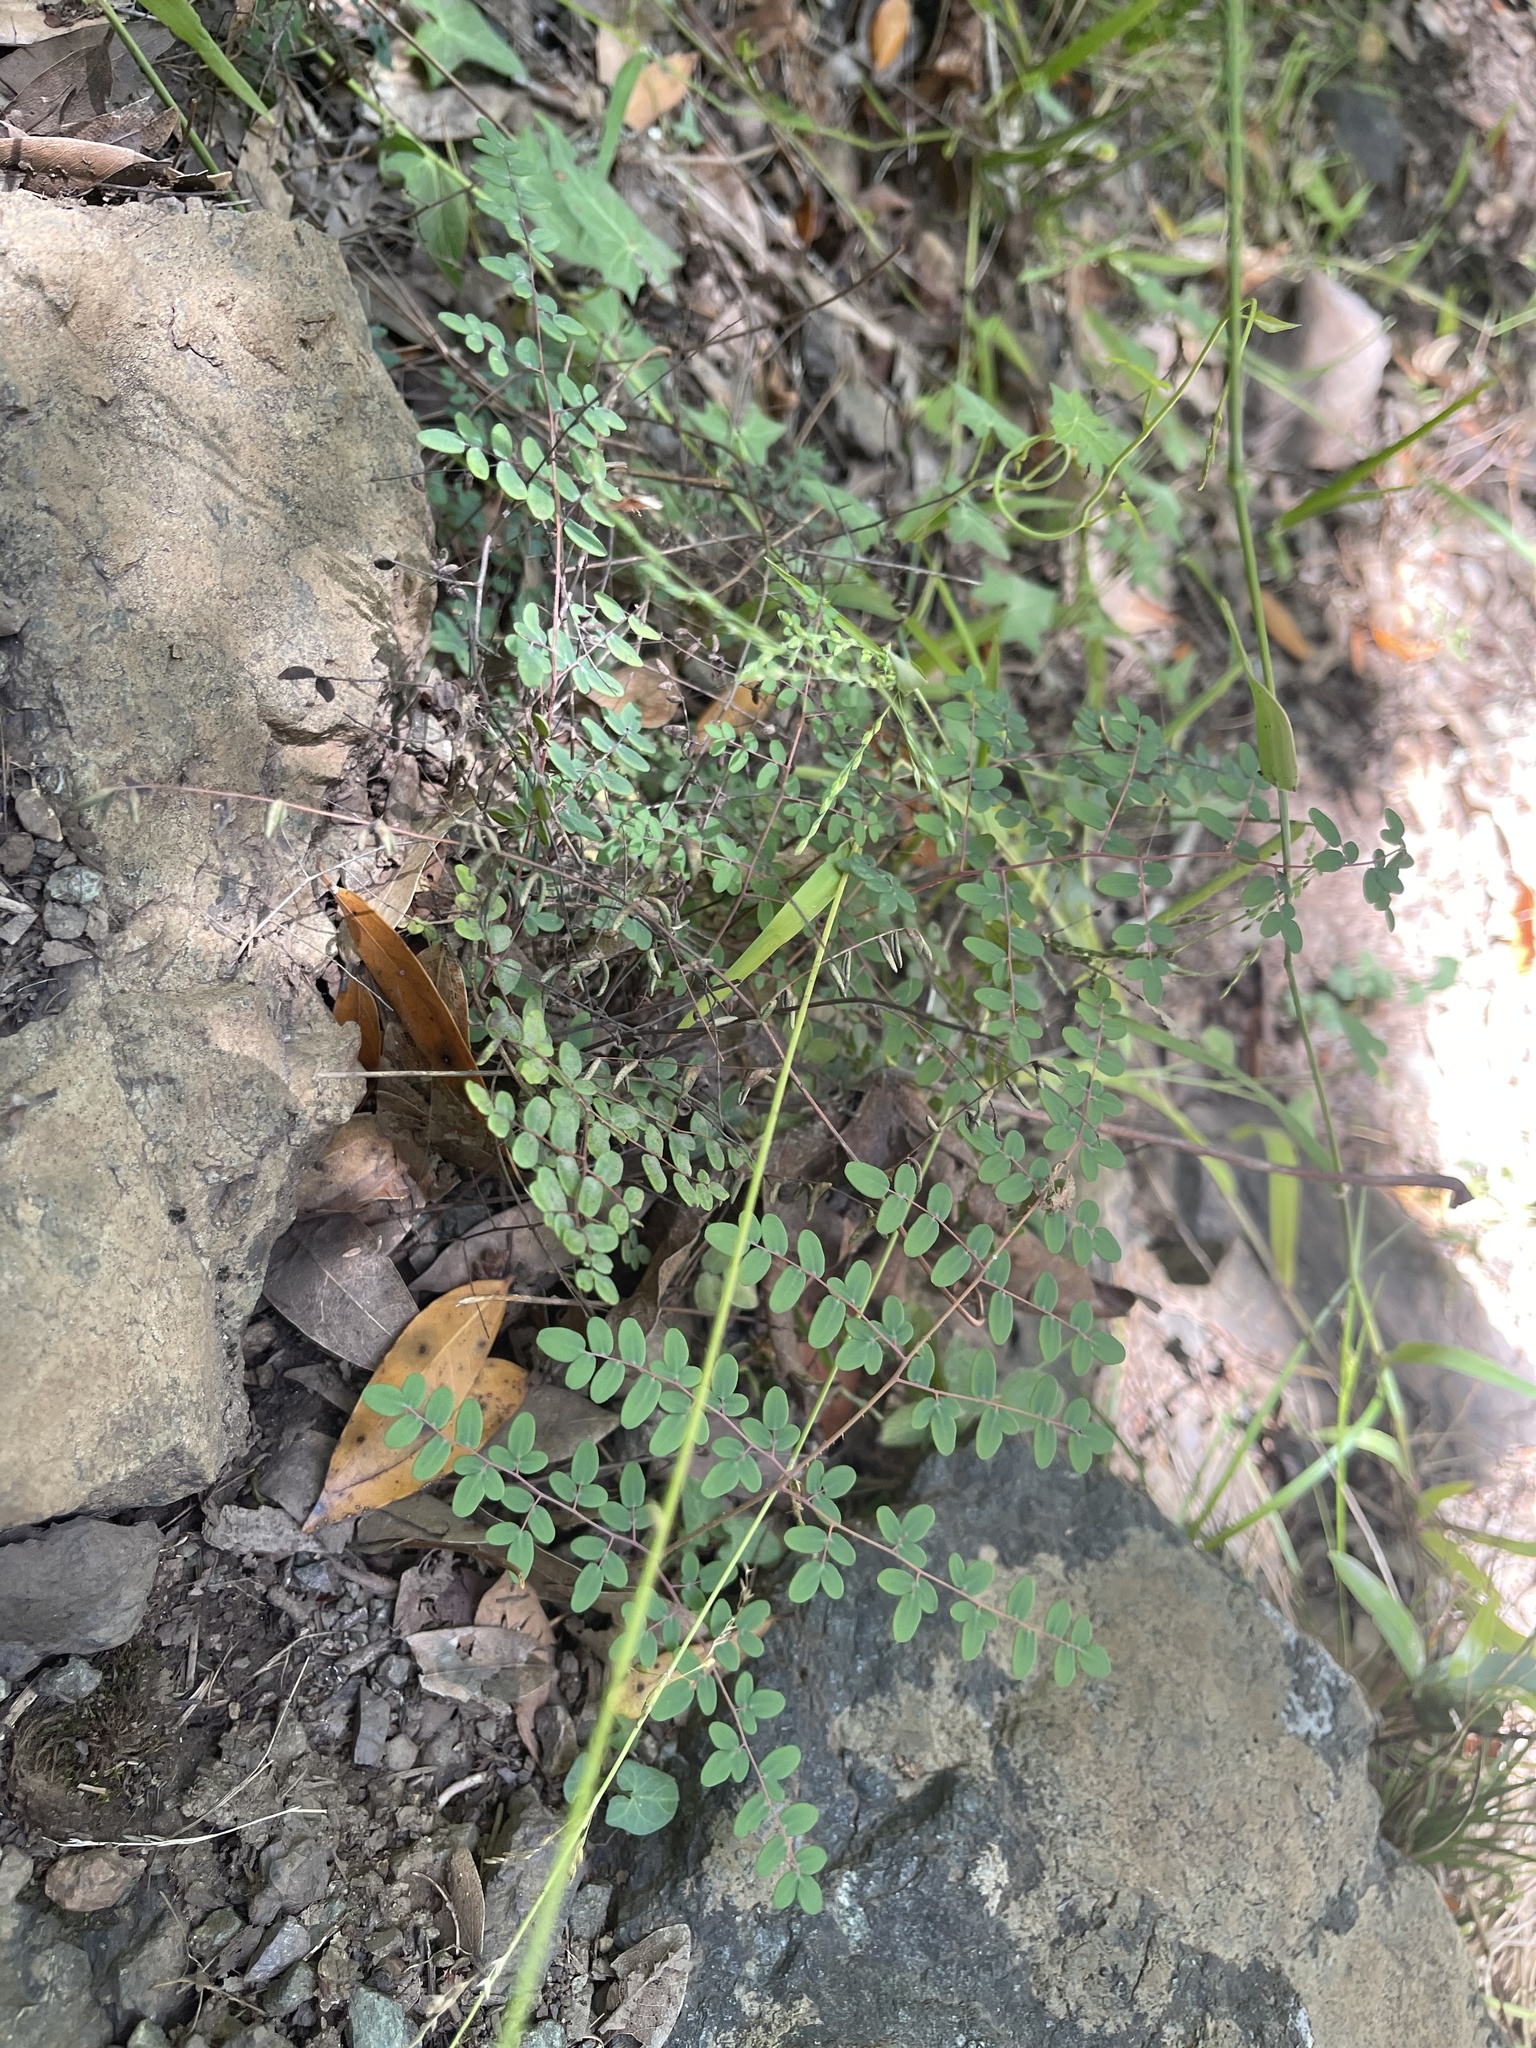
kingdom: Plantae
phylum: Tracheophyta
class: Polypodiopsida
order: Polypodiales
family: Pteridaceae
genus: Pellaea
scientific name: Pellaea andromedifolia
